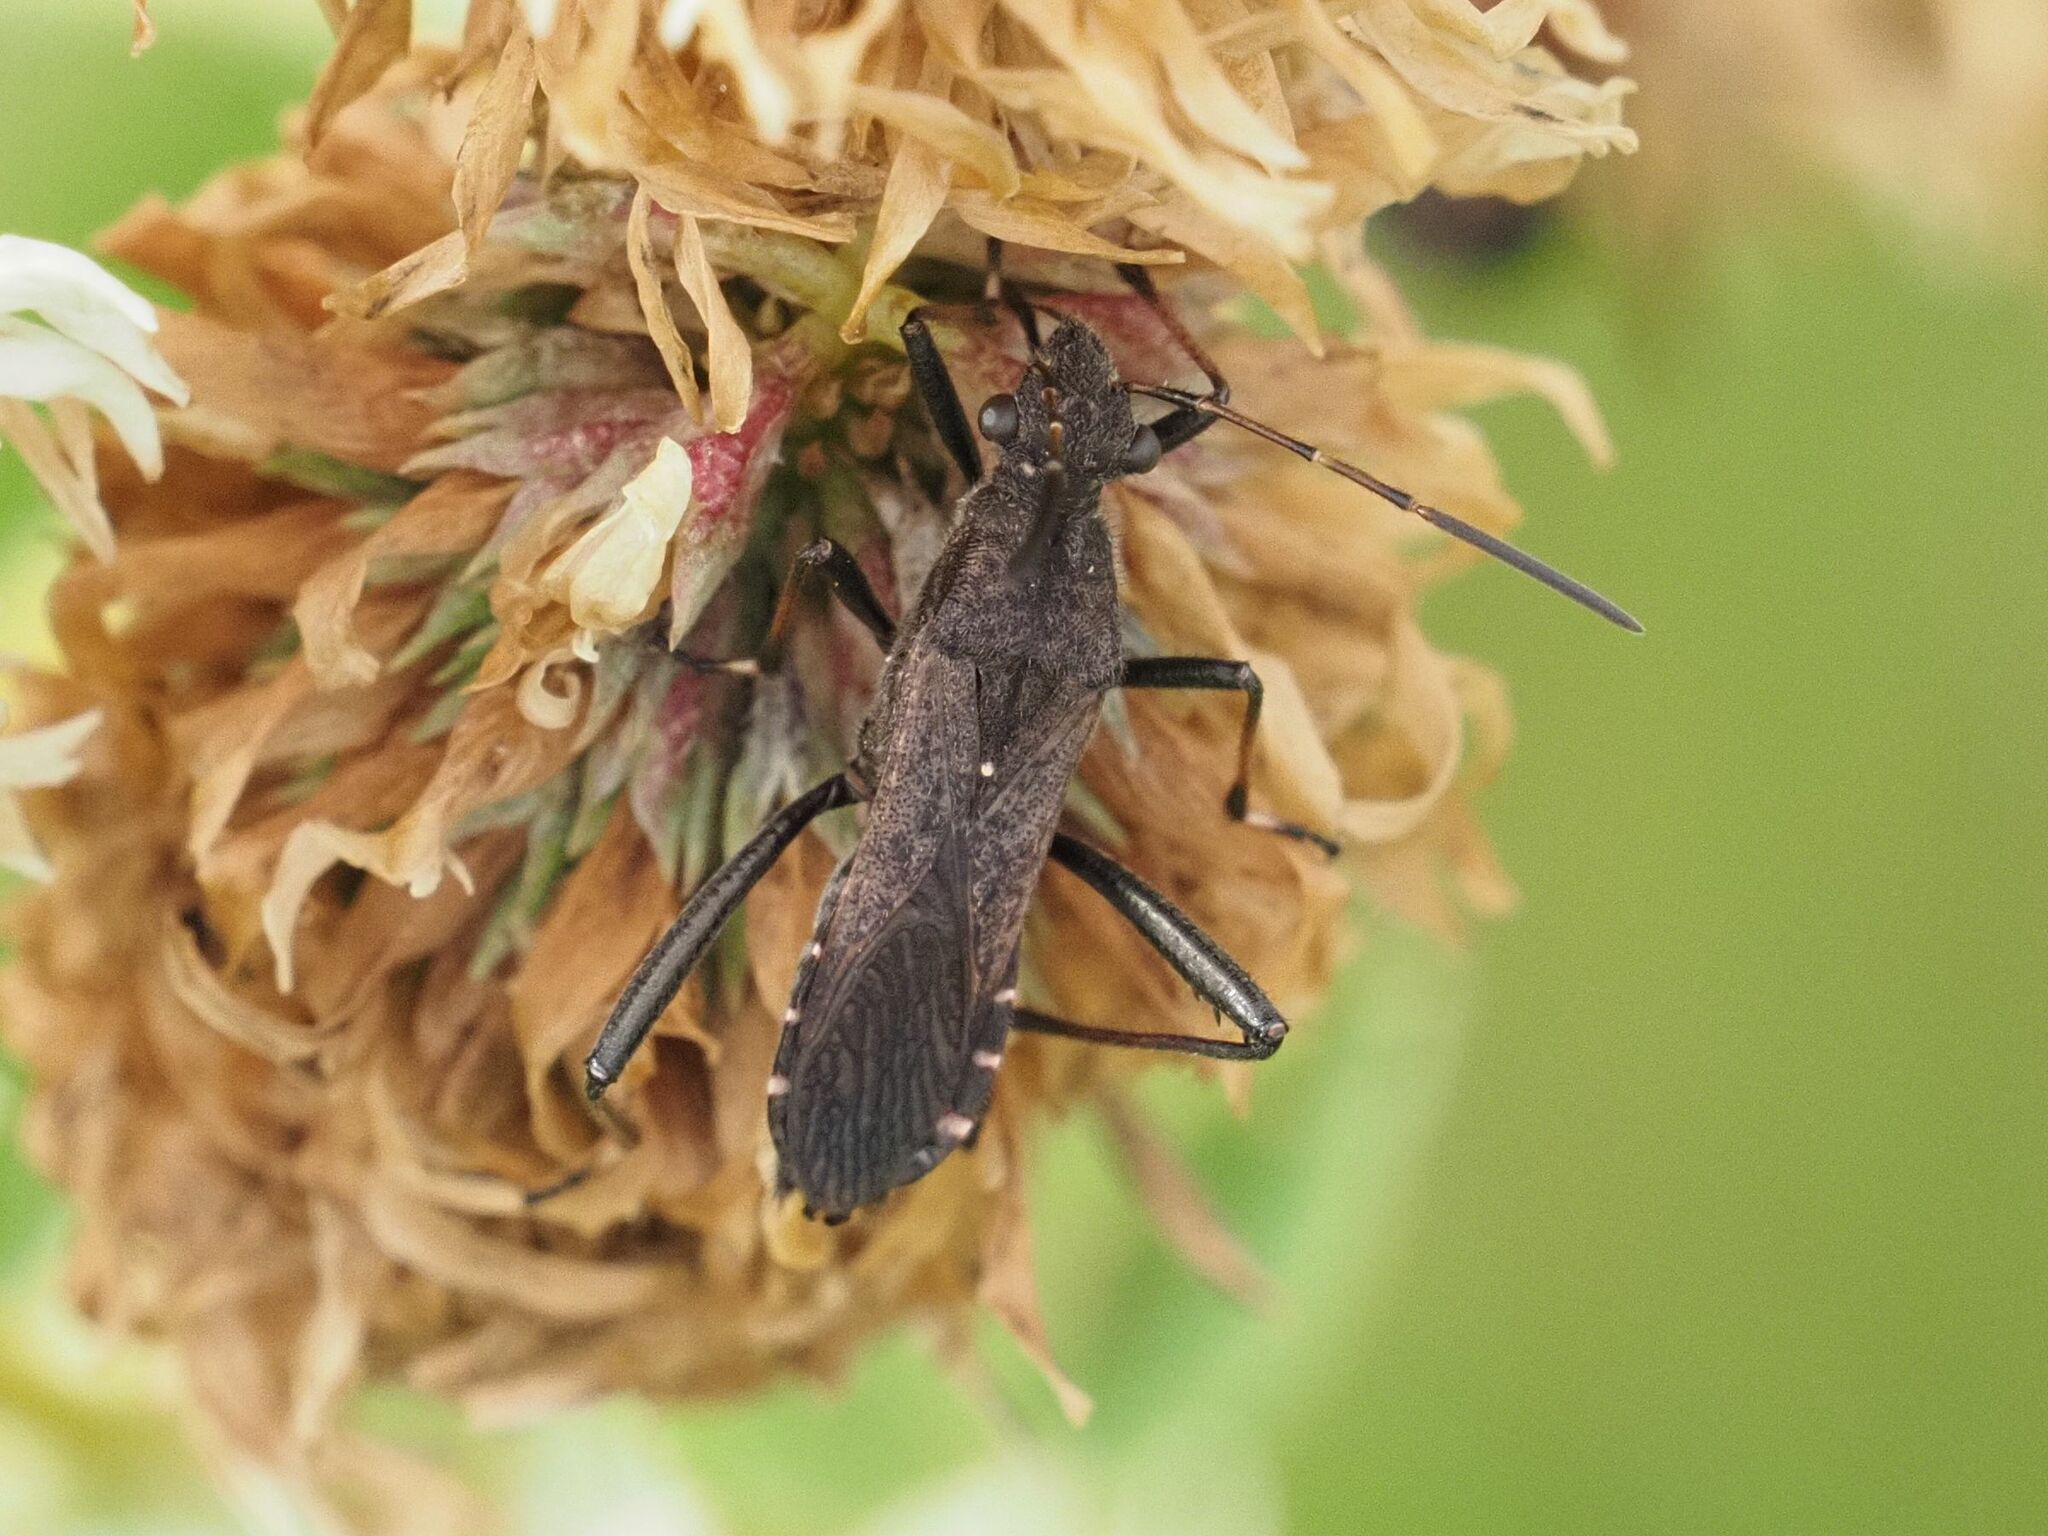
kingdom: Animalia
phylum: Arthropoda
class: Insecta
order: Hemiptera
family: Alydidae
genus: Alydus
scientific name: Alydus calcaratus
